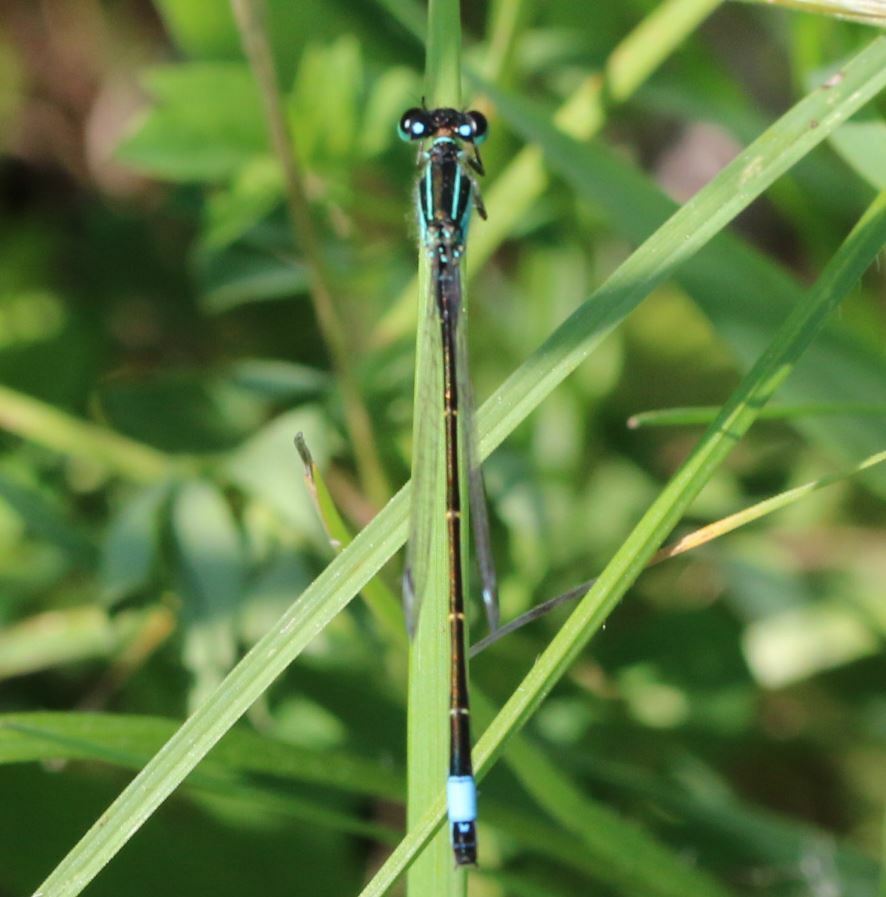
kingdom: Animalia
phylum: Arthropoda
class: Insecta
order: Odonata
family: Coenagrionidae
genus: Ischnura
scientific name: Ischnura elegans
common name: Blue-tailed damselfly
